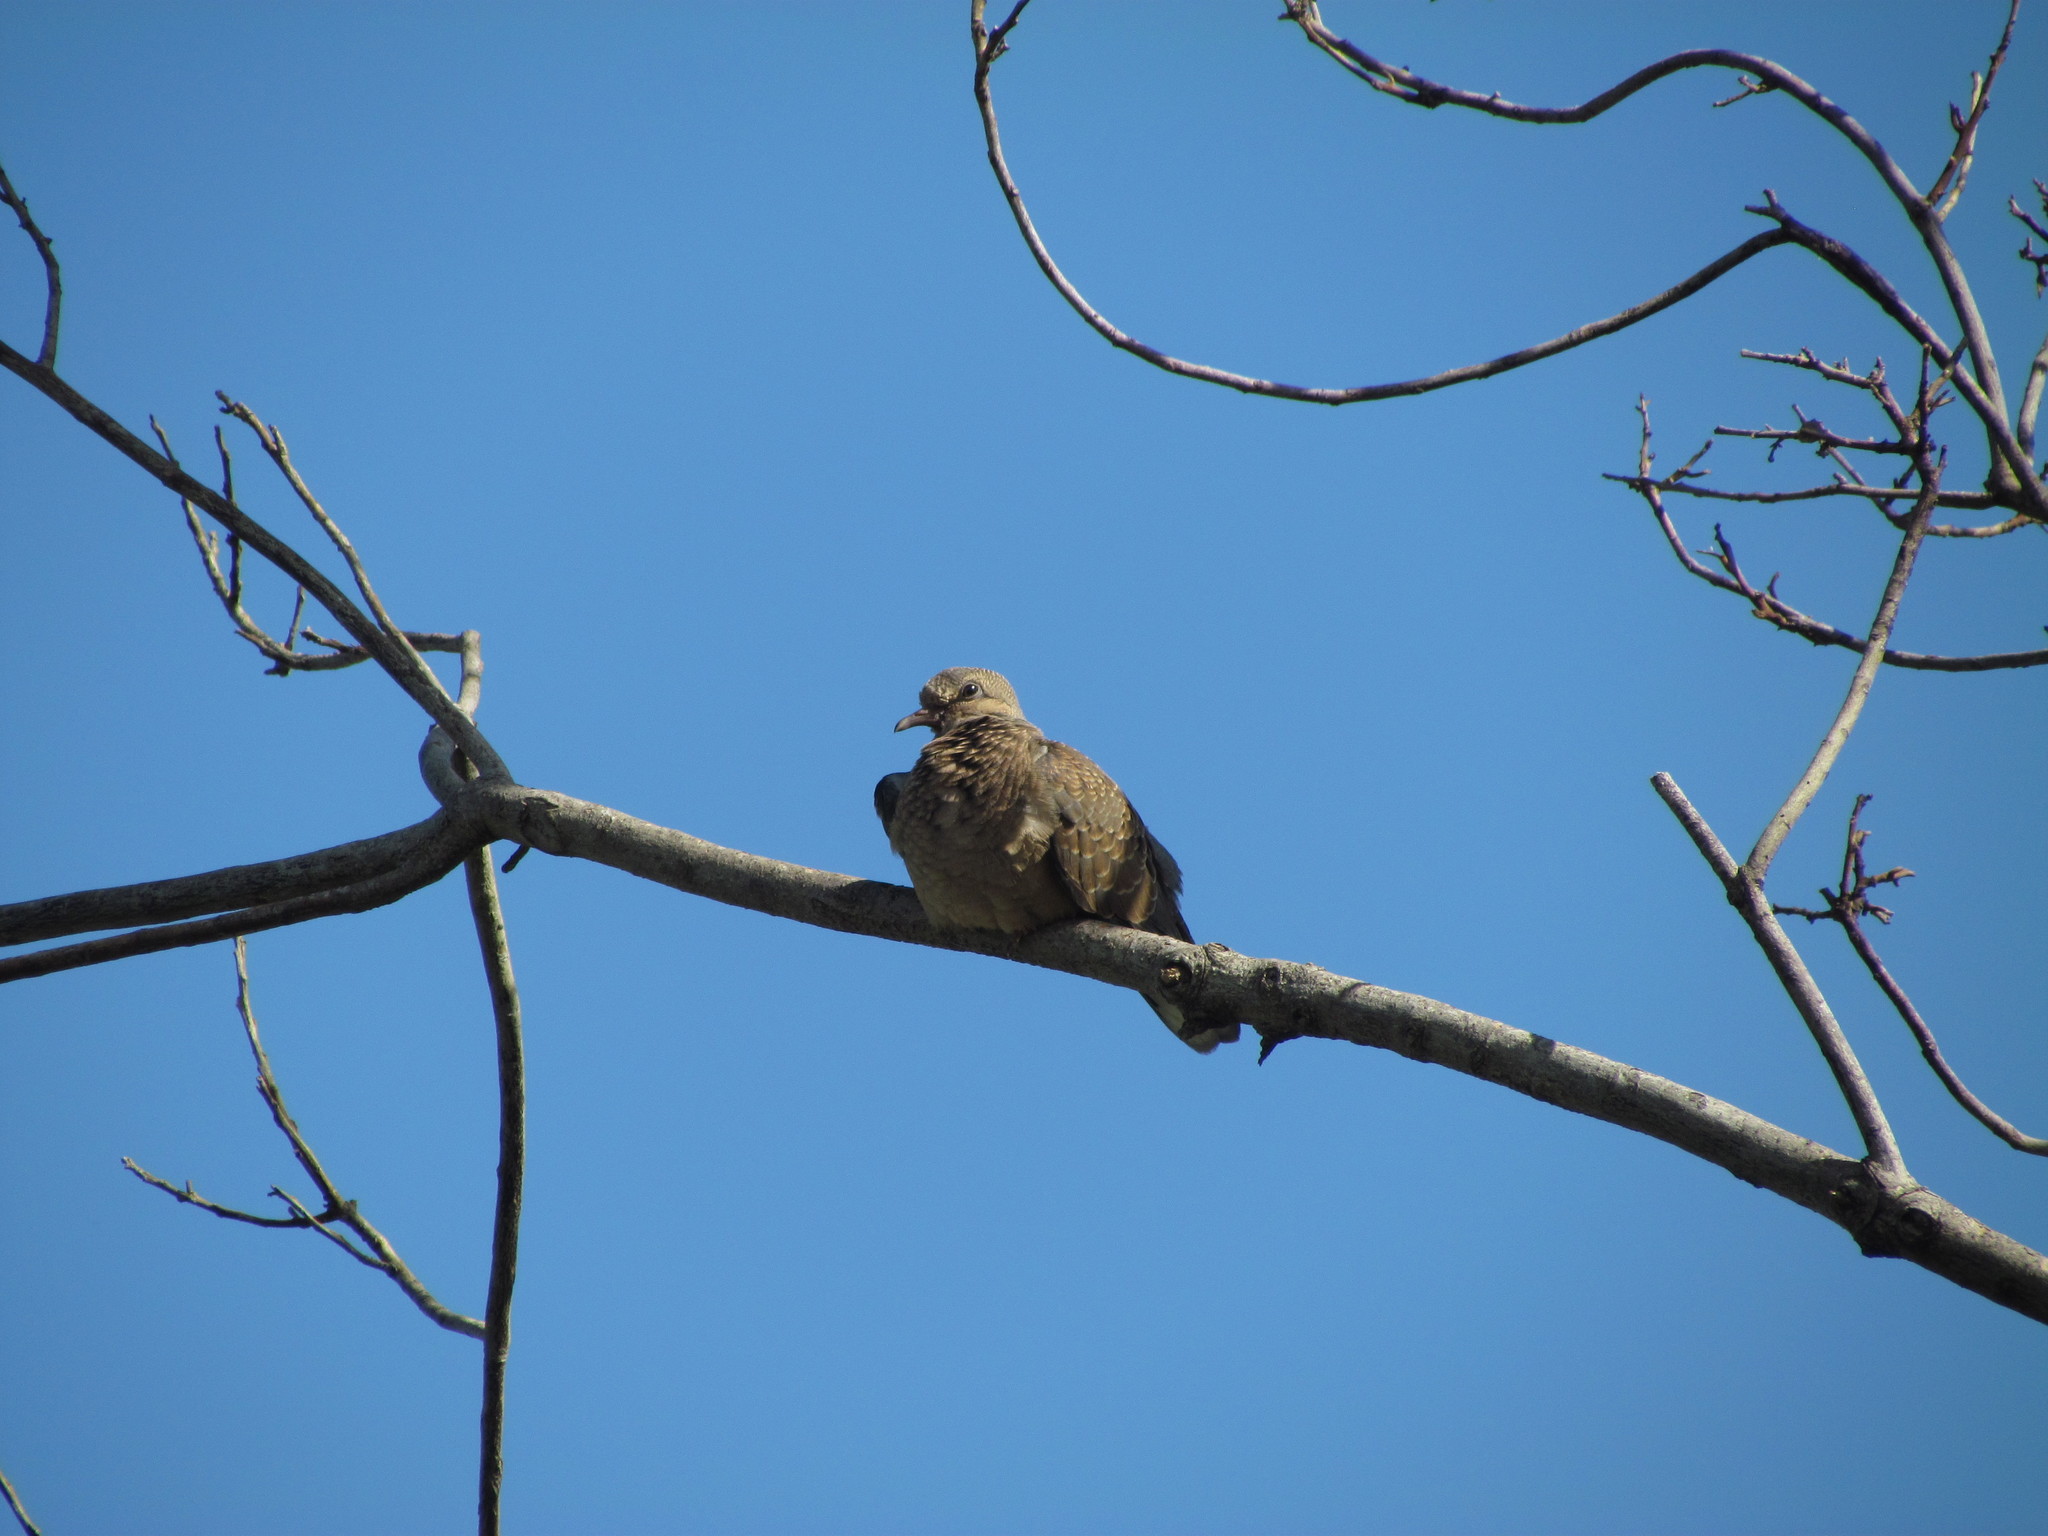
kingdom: Animalia
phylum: Chordata
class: Aves
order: Columbiformes
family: Columbidae
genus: Zenaida
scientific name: Zenaida auriculata
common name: Eared dove
